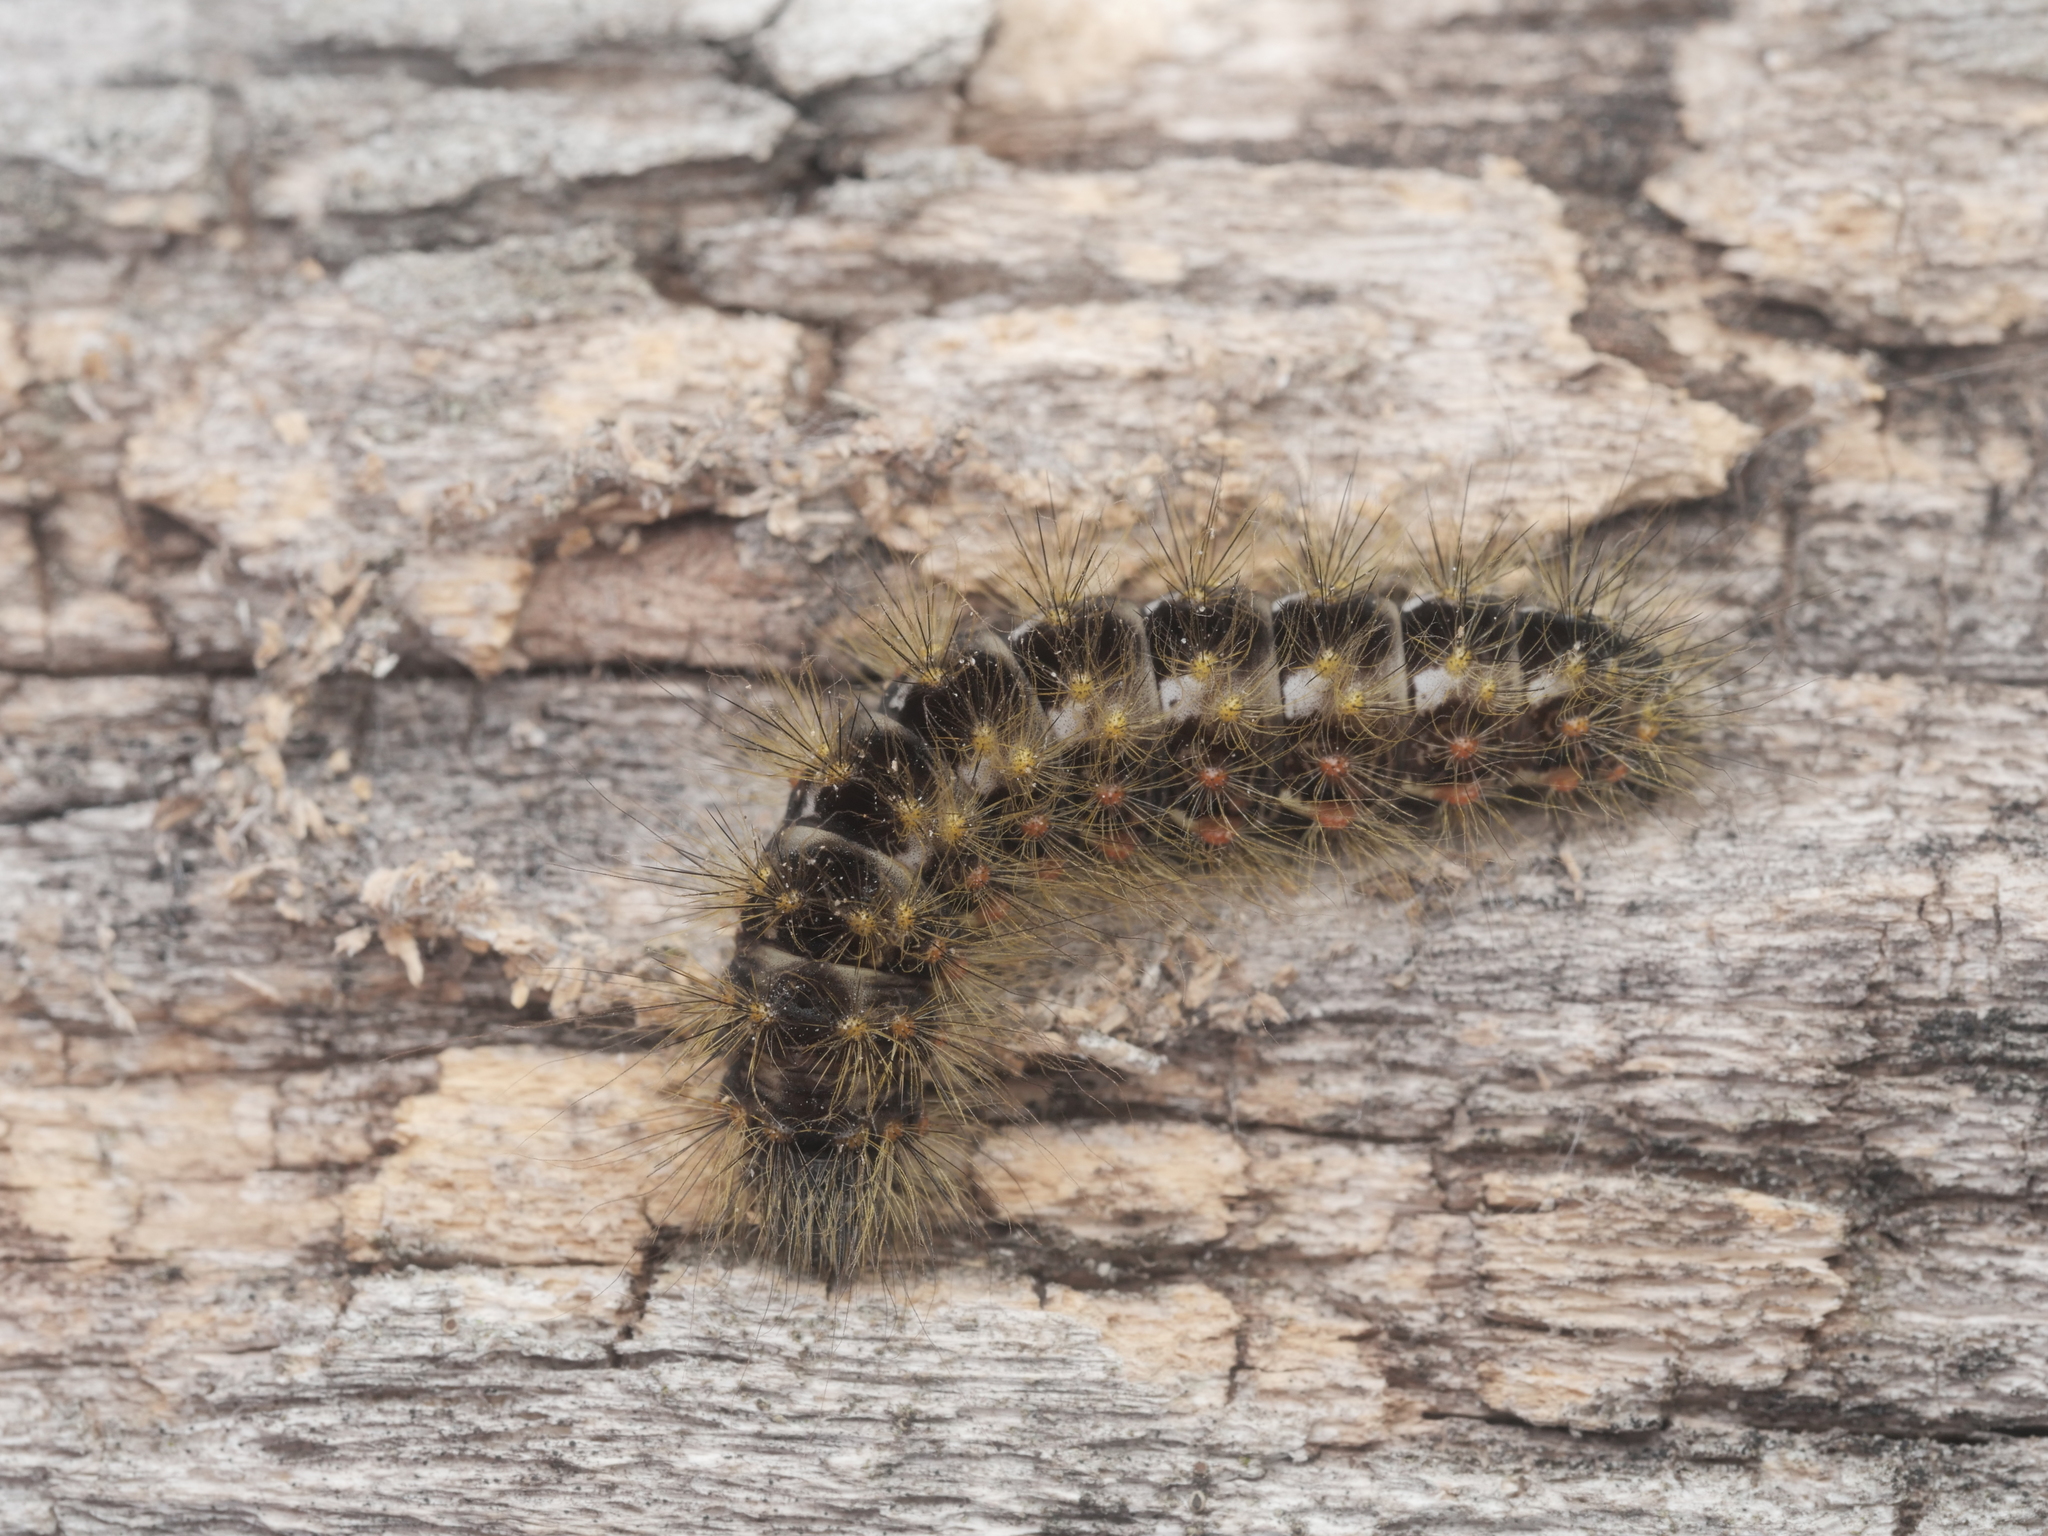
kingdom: Animalia
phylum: Arthropoda
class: Insecta
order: Lepidoptera
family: Noctuidae
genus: Acronicta
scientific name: Acronicta auricoma
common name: Scarce dagger
